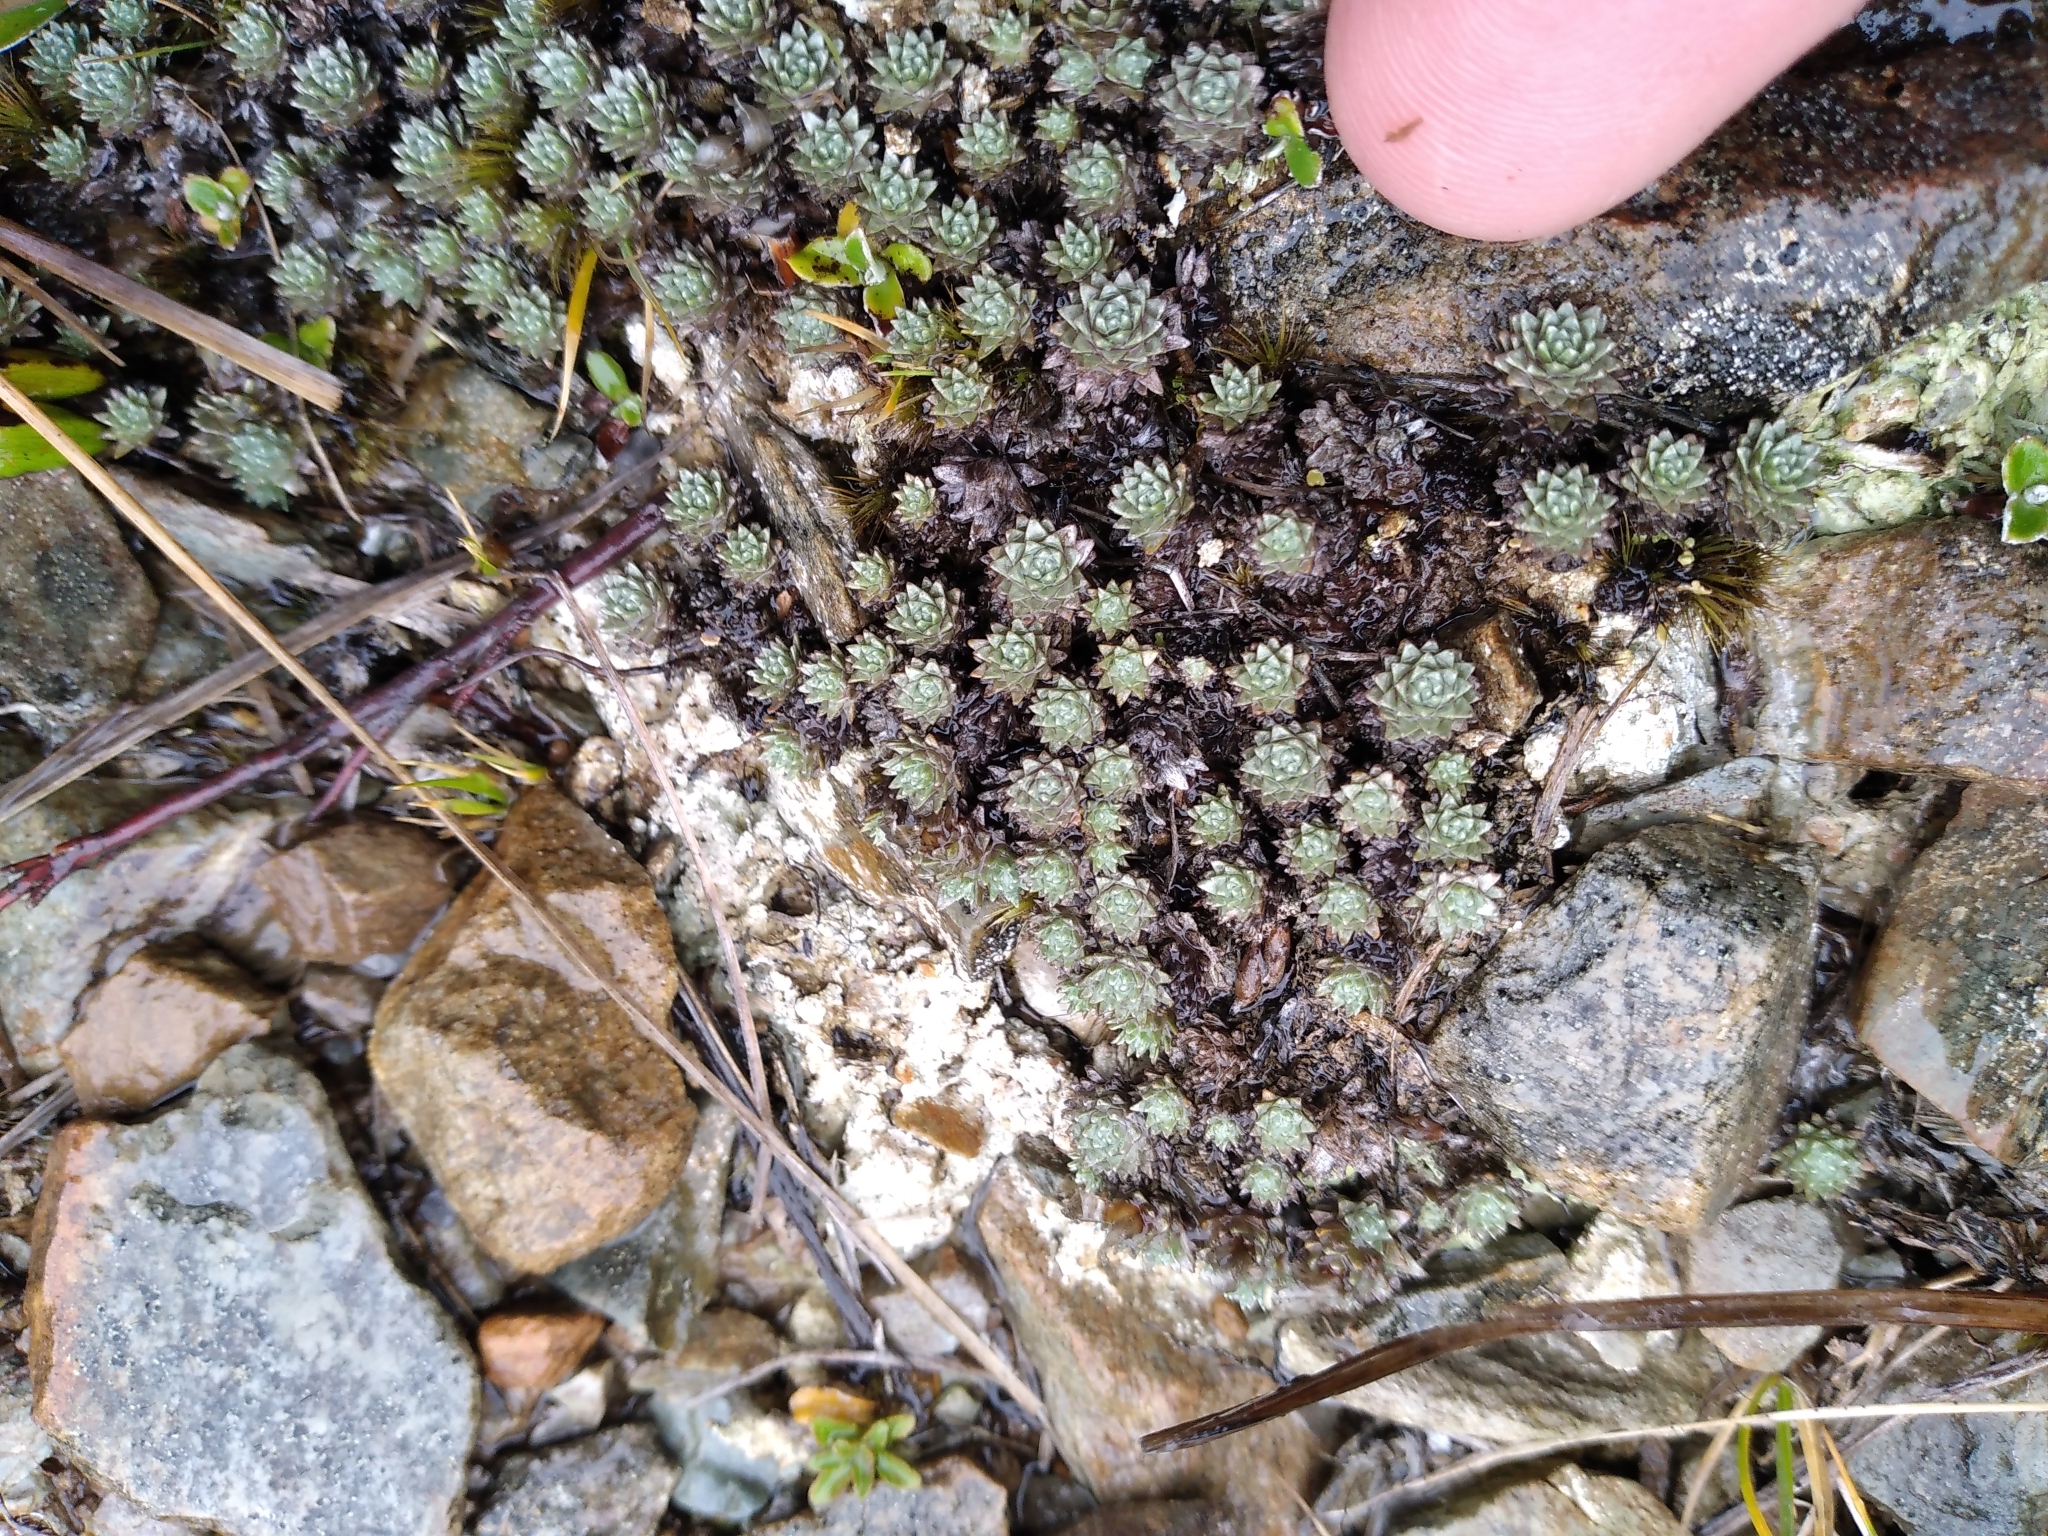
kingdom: Plantae
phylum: Tracheophyta
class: Magnoliopsida
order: Asterales
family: Asteraceae
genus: Raoulia
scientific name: Raoulia grandiflora
